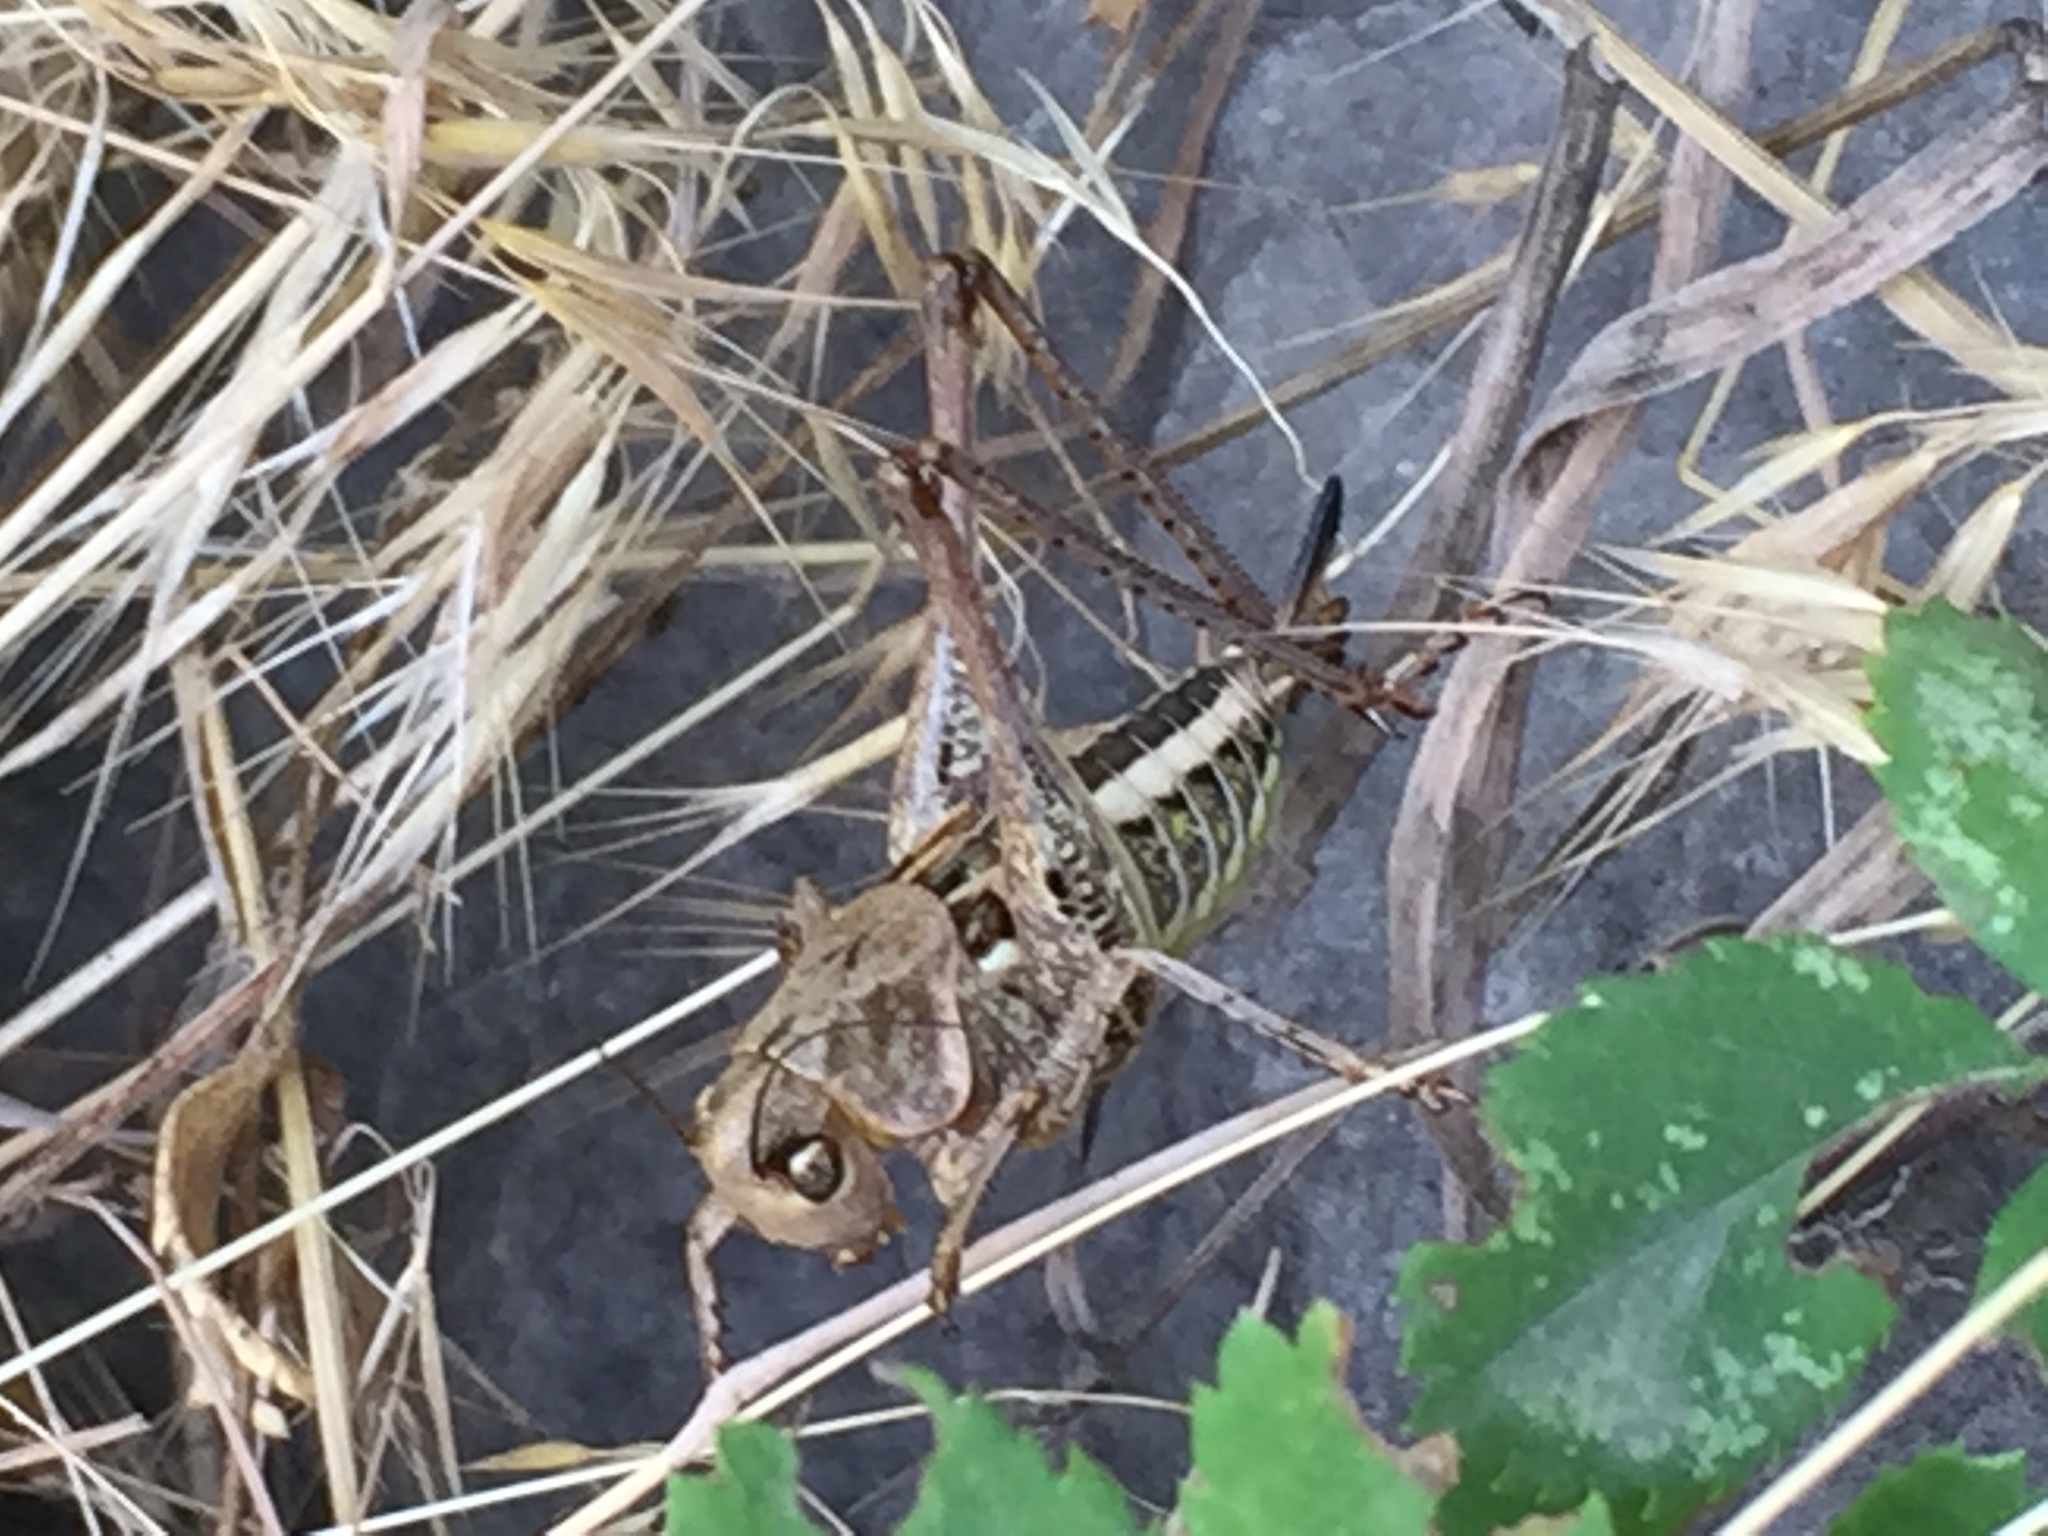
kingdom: Animalia
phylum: Arthropoda
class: Insecta
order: Orthoptera
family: Tettigoniidae
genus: Decticus
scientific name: Decticus albifrons
